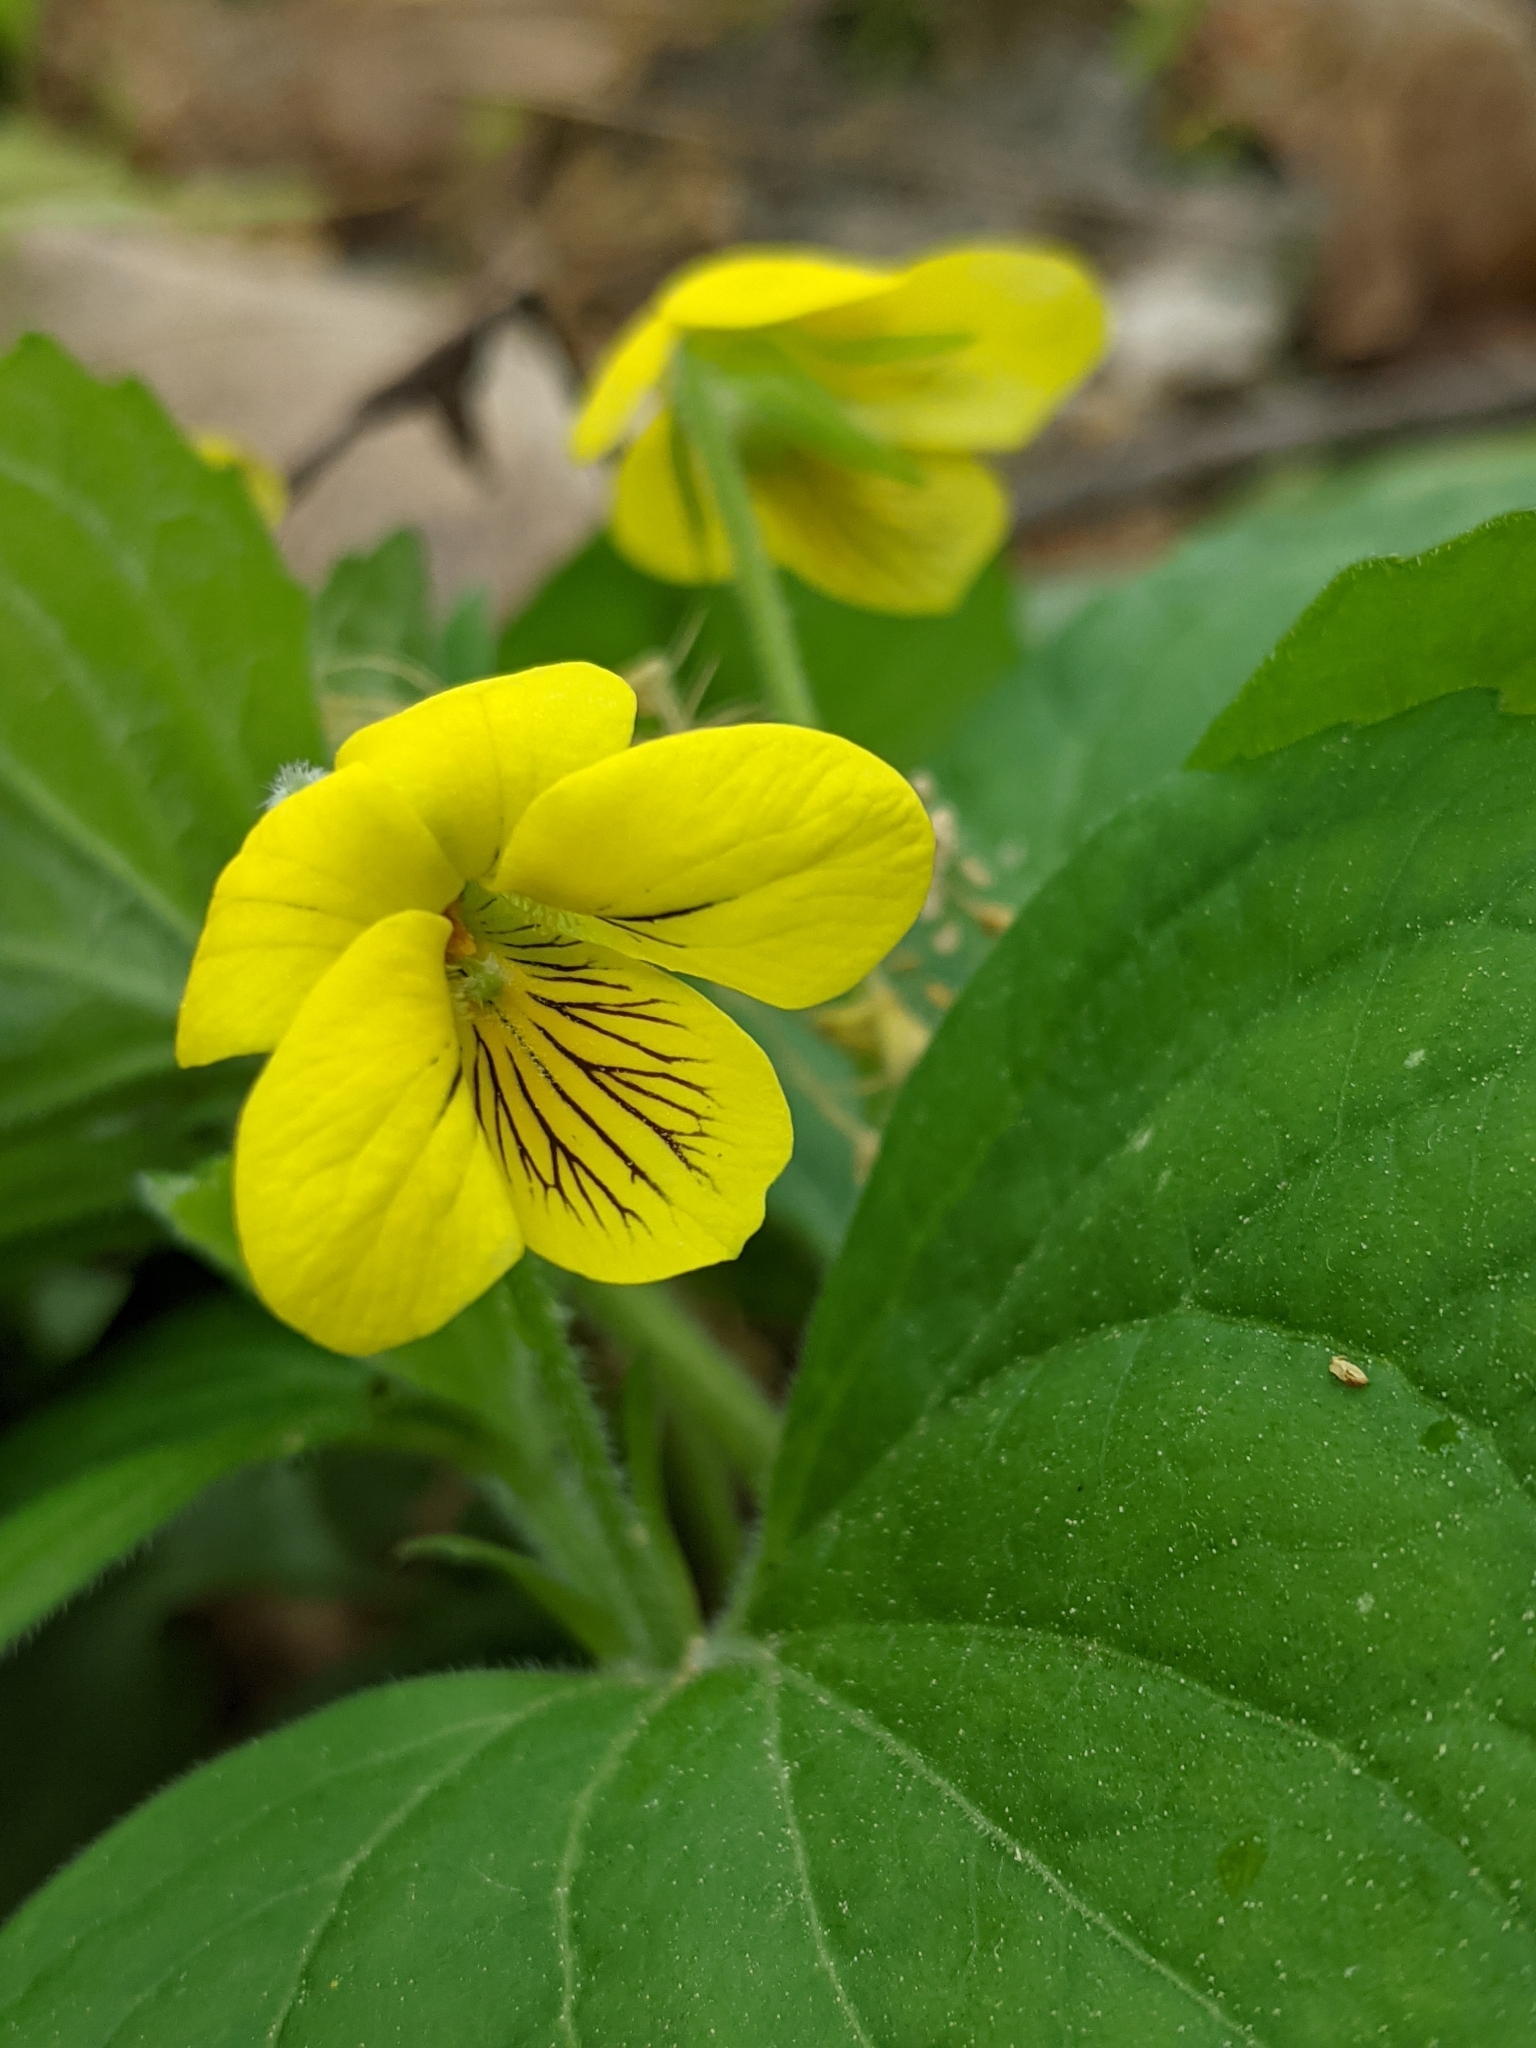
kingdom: Plantae
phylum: Tracheophyta
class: Magnoliopsida
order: Malpighiales
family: Violaceae
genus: Viola
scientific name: Viola eriocarpa
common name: Smooth yellow violet
